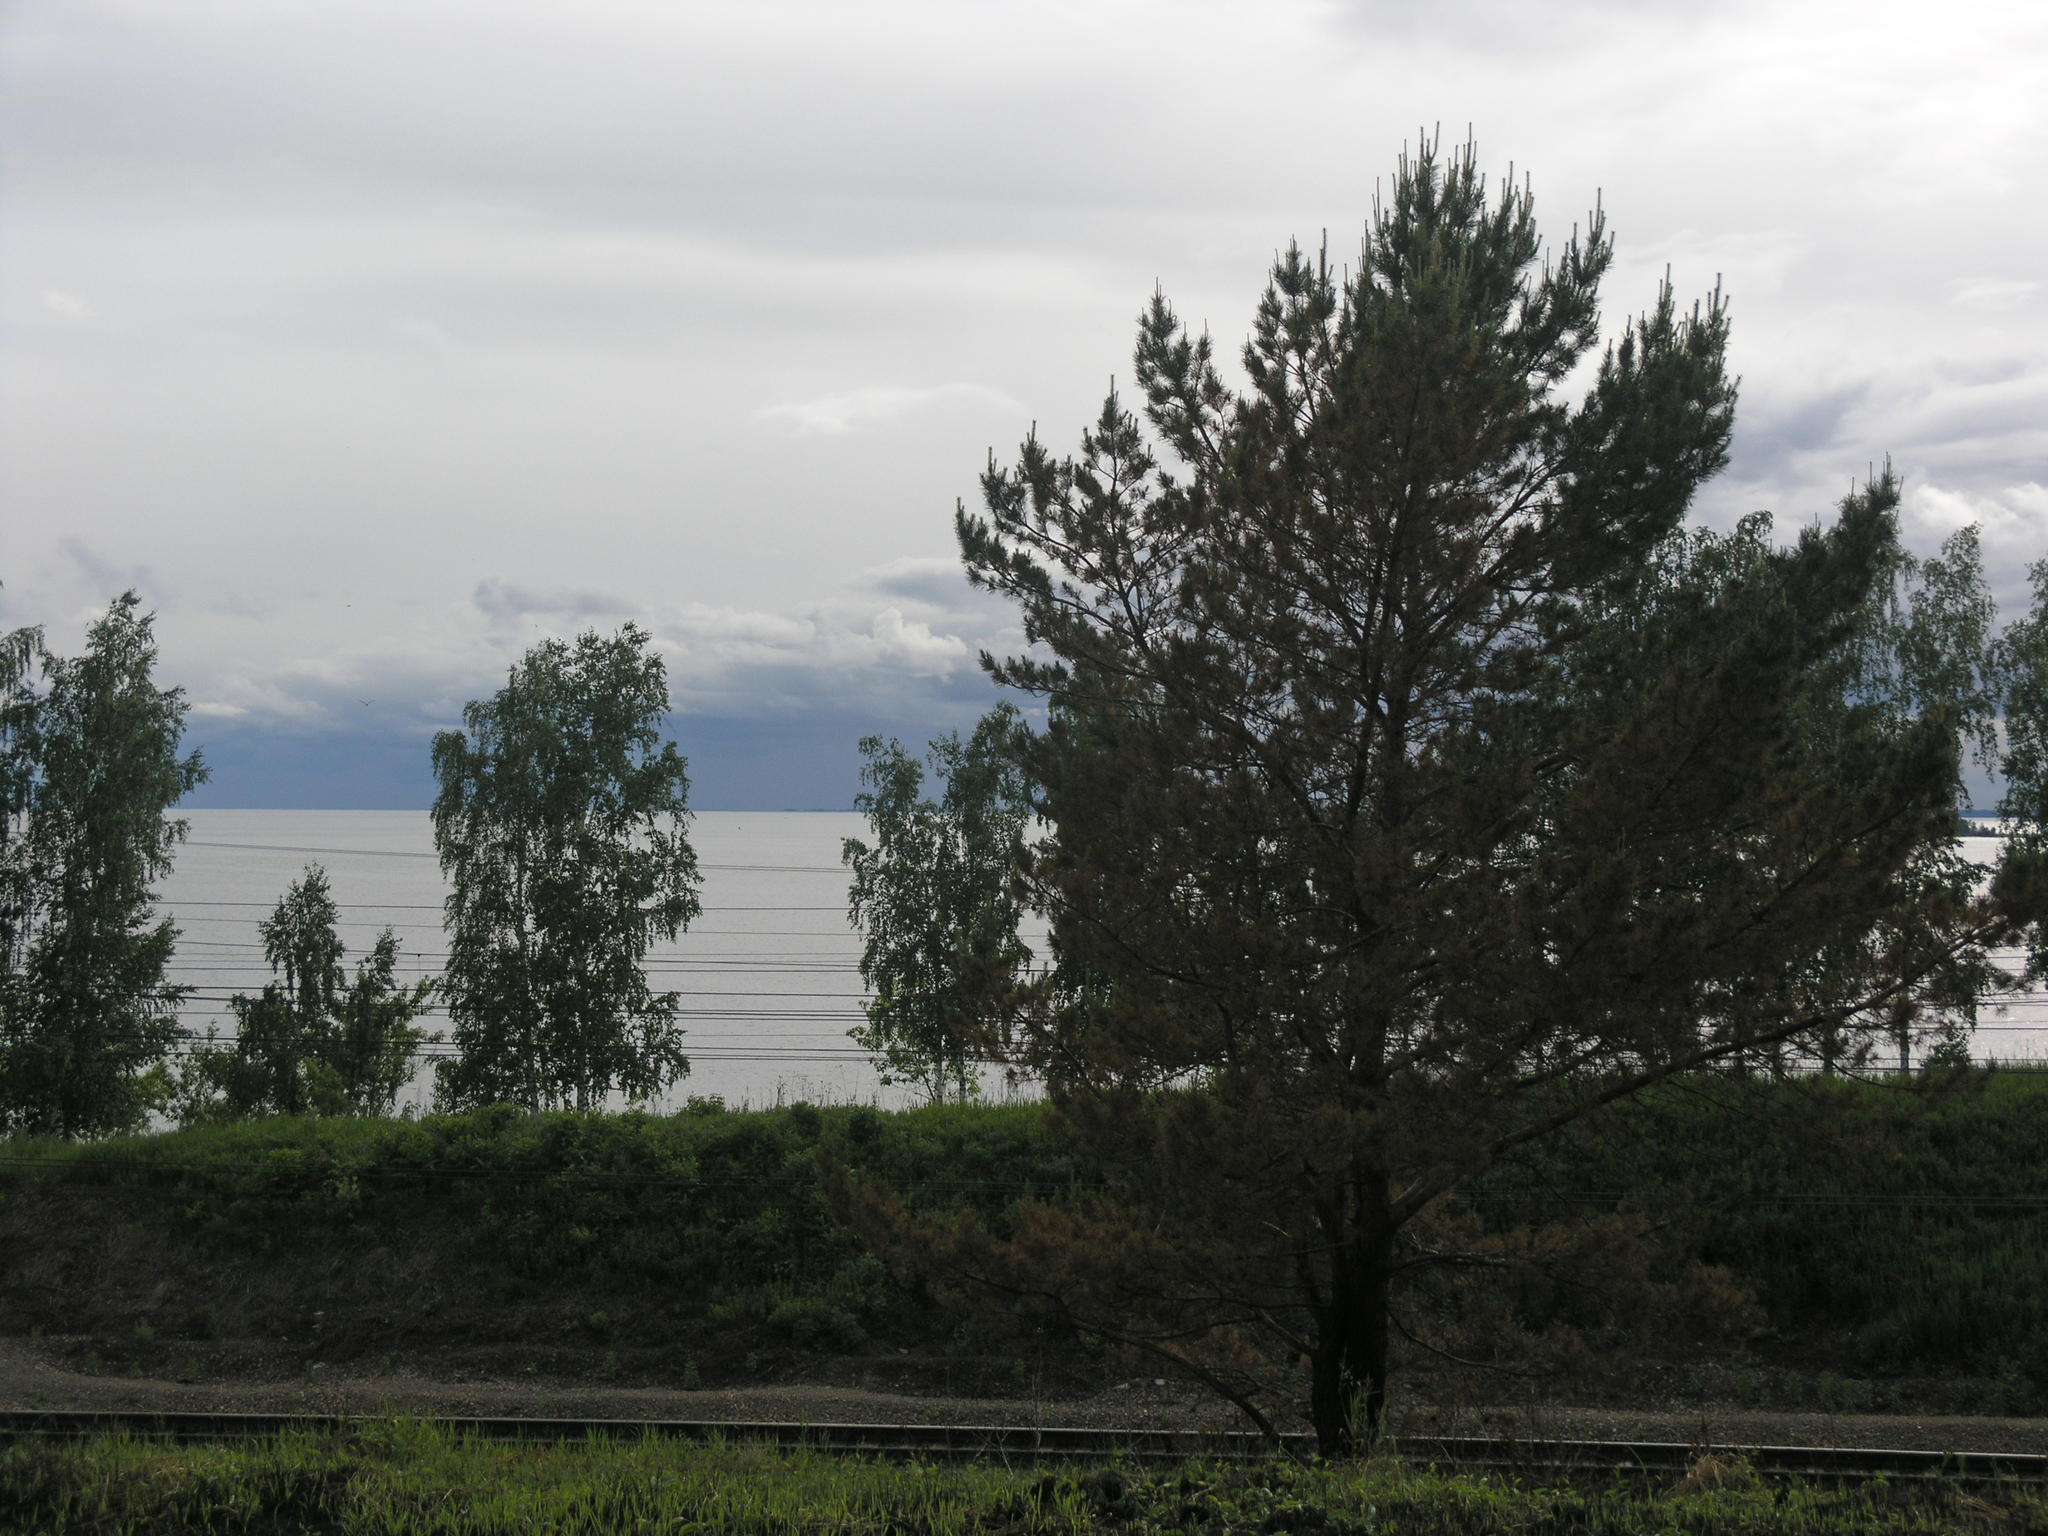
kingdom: Plantae
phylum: Tracheophyta
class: Pinopsida
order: Pinales
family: Pinaceae
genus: Pinus
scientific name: Pinus sylvestris
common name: Scots pine
